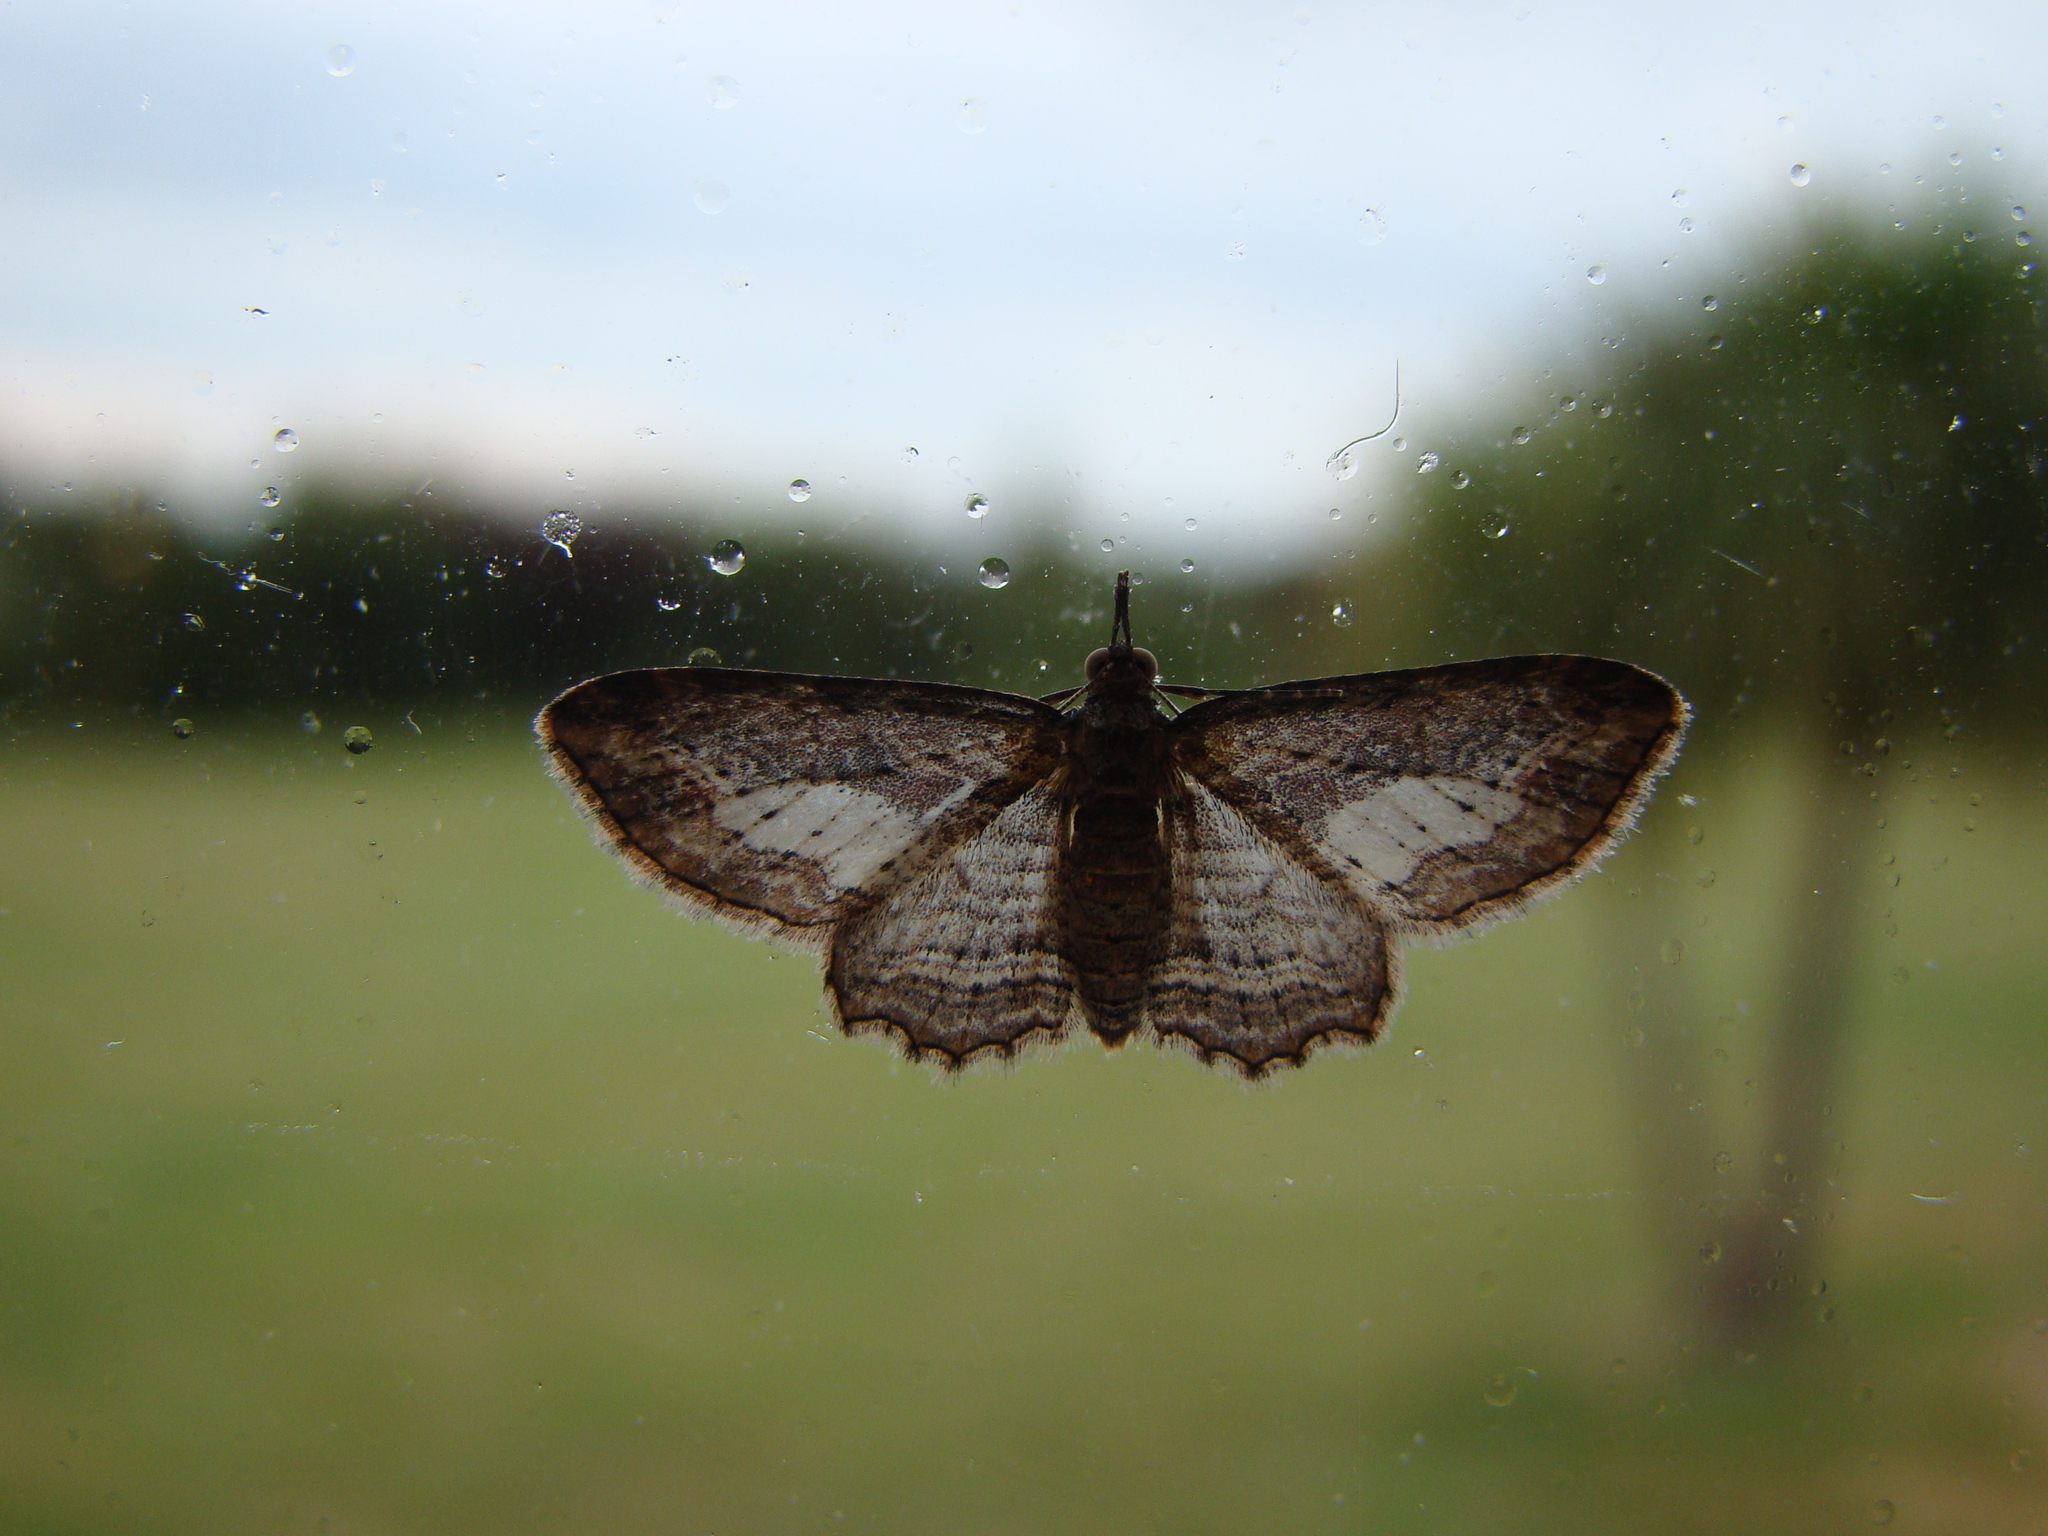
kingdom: Animalia
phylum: Arthropoda
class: Insecta
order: Lepidoptera
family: Geometridae
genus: Chloroclystis
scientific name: Chloroclystis filata
